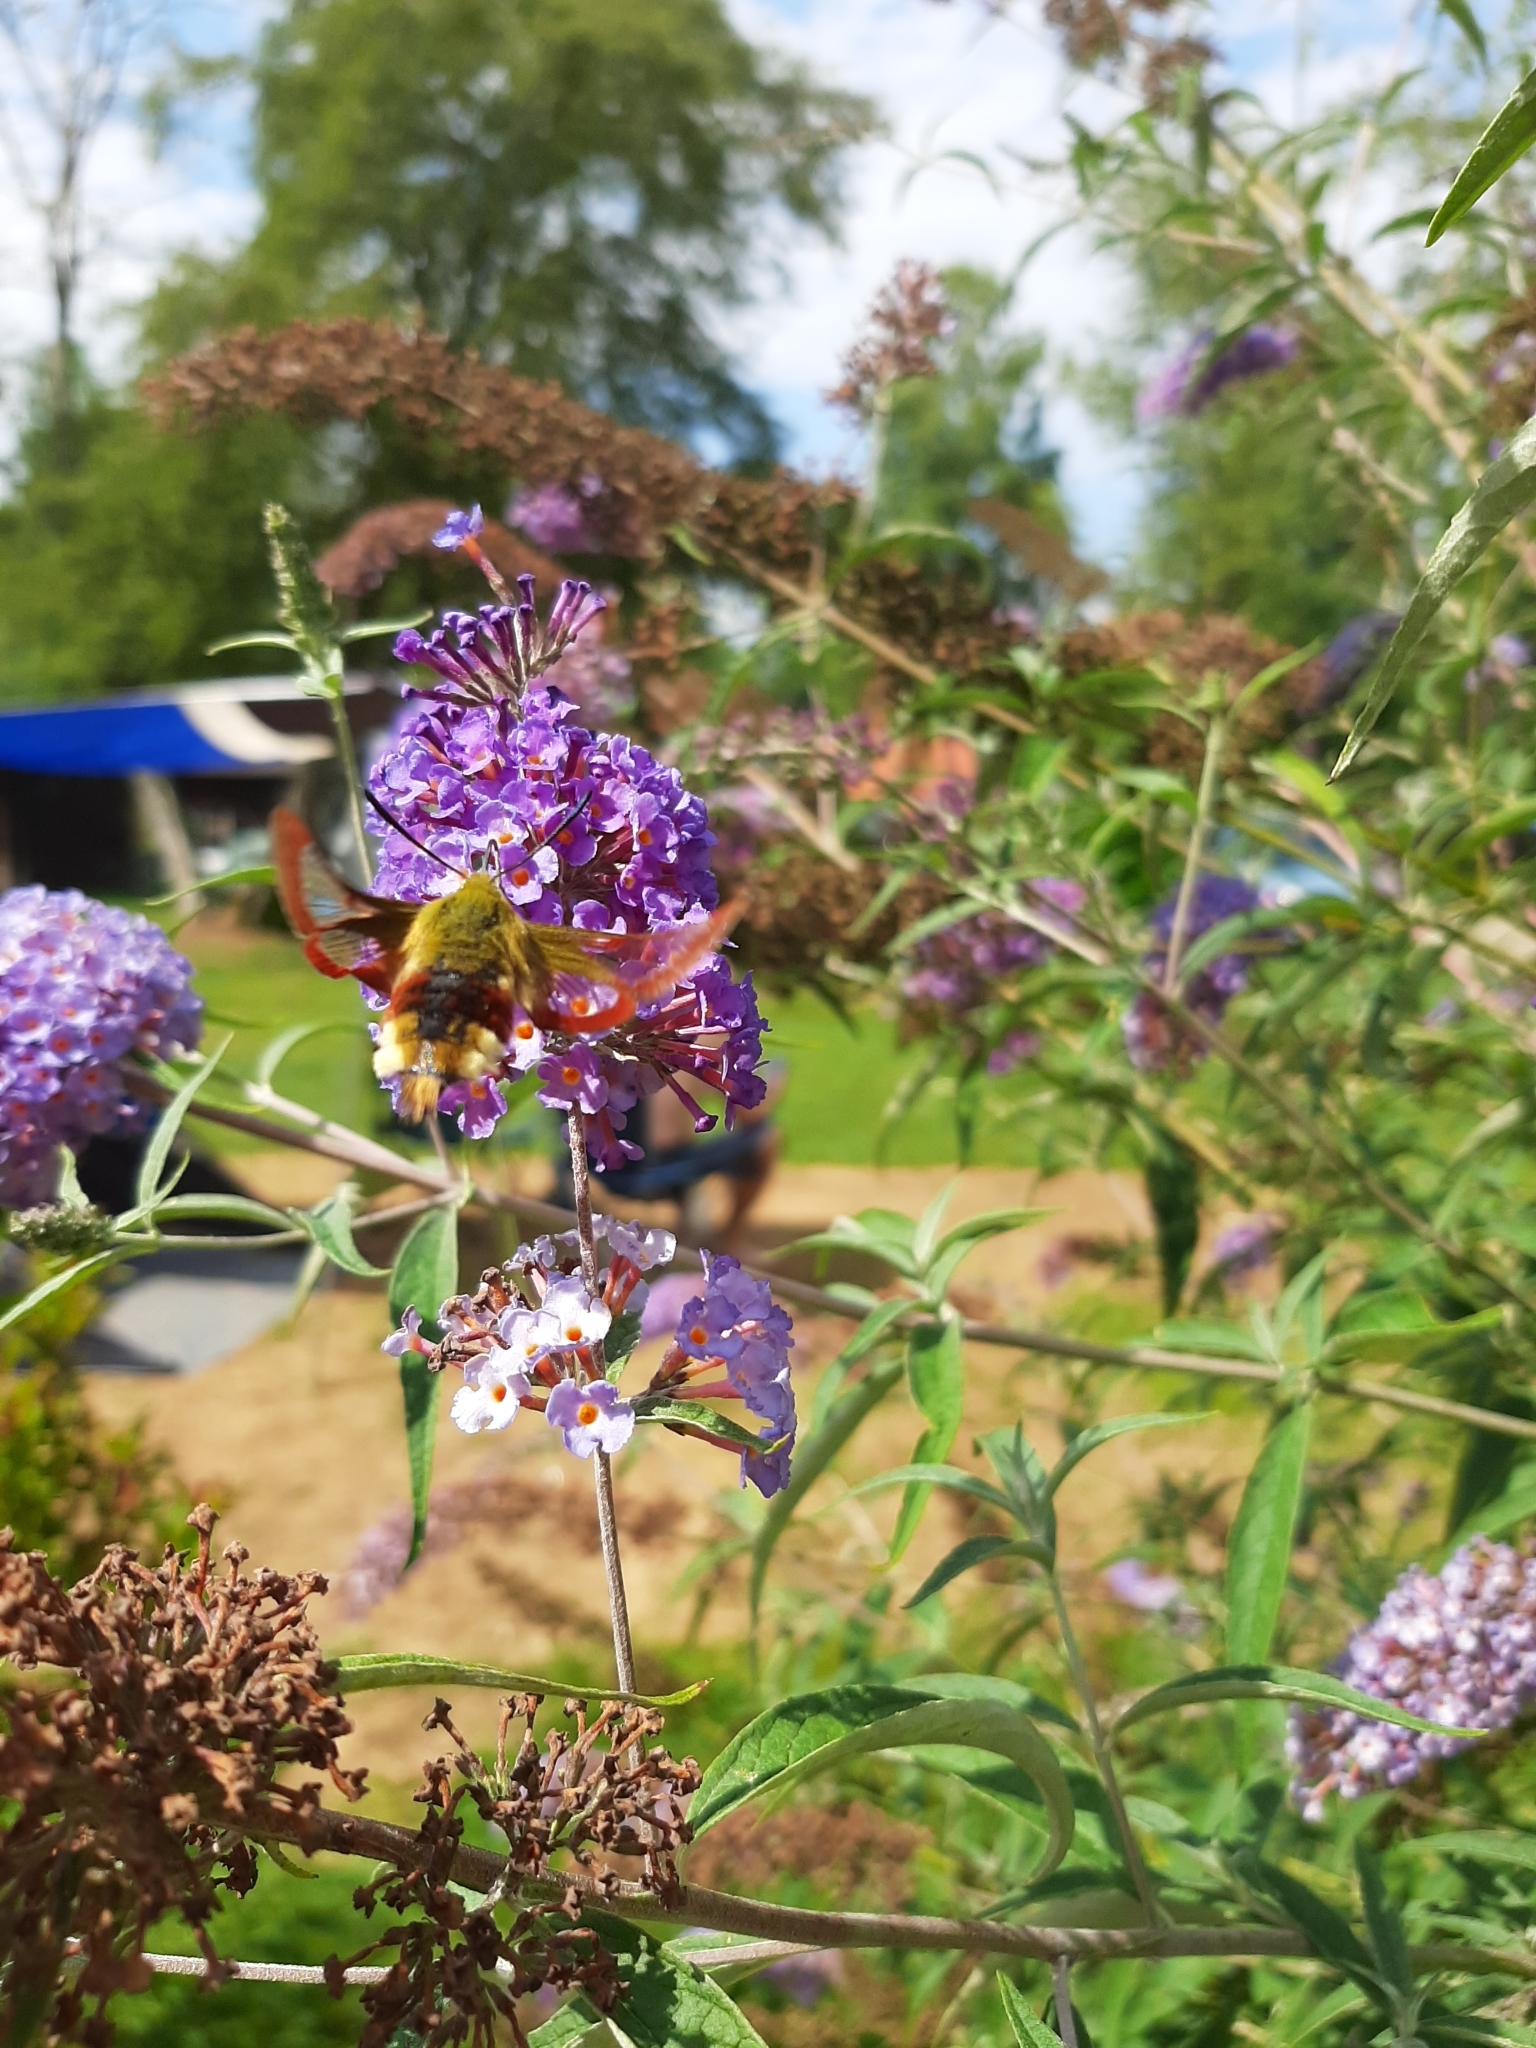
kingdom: Animalia
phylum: Arthropoda
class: Insecta
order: Lepidoptera
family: Sphingidae
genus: Hemaris
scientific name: Hemaris fuciformis
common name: Broad-bordered bee hawk-moth
